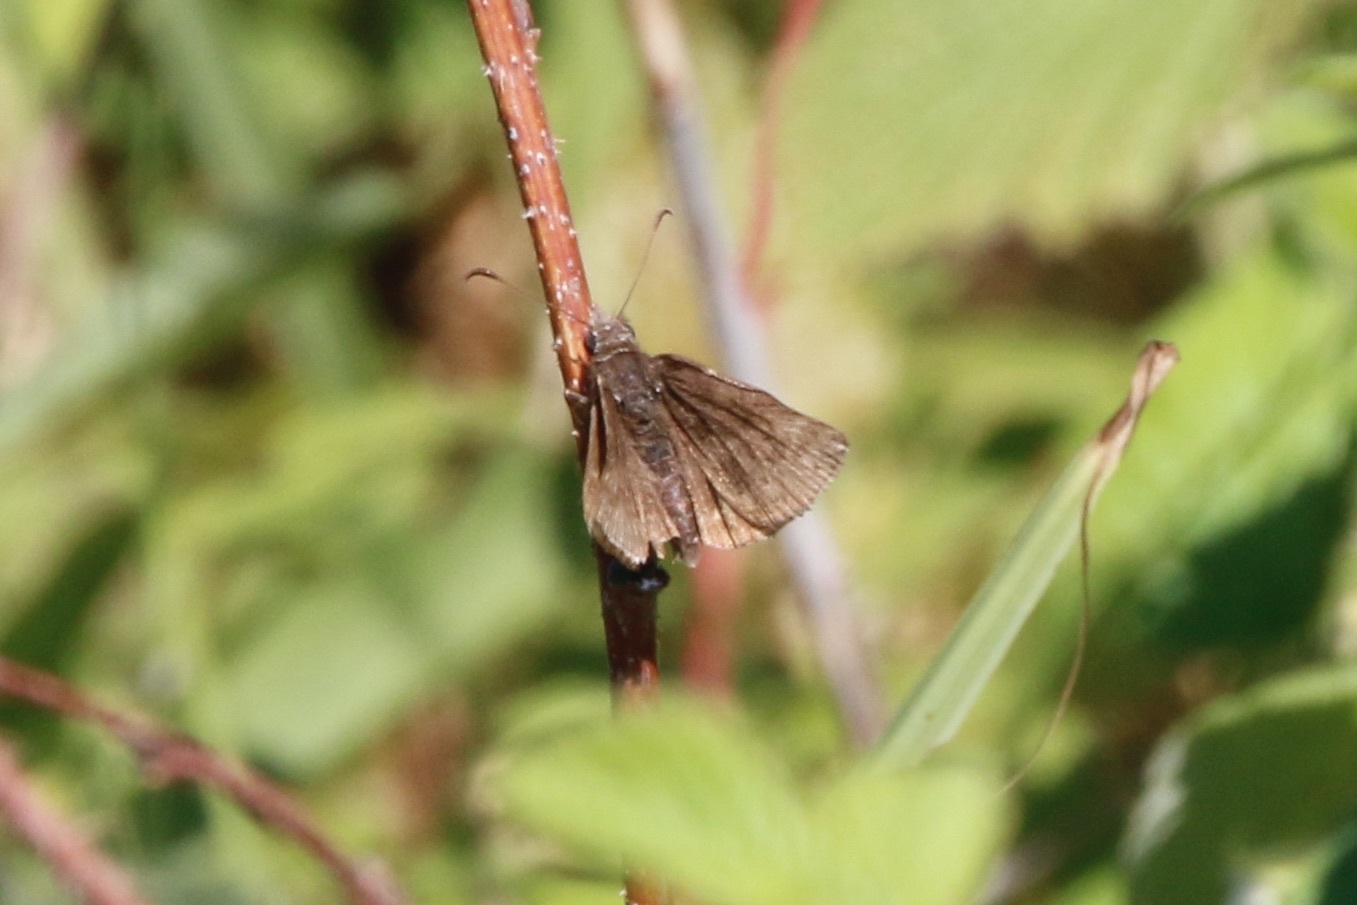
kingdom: Animalia
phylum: Arthropoda
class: Insecta
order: Lepidoptera
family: Hesperiidae
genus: Erynnis
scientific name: Erynnis icelus
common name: Dreamy duskywing
